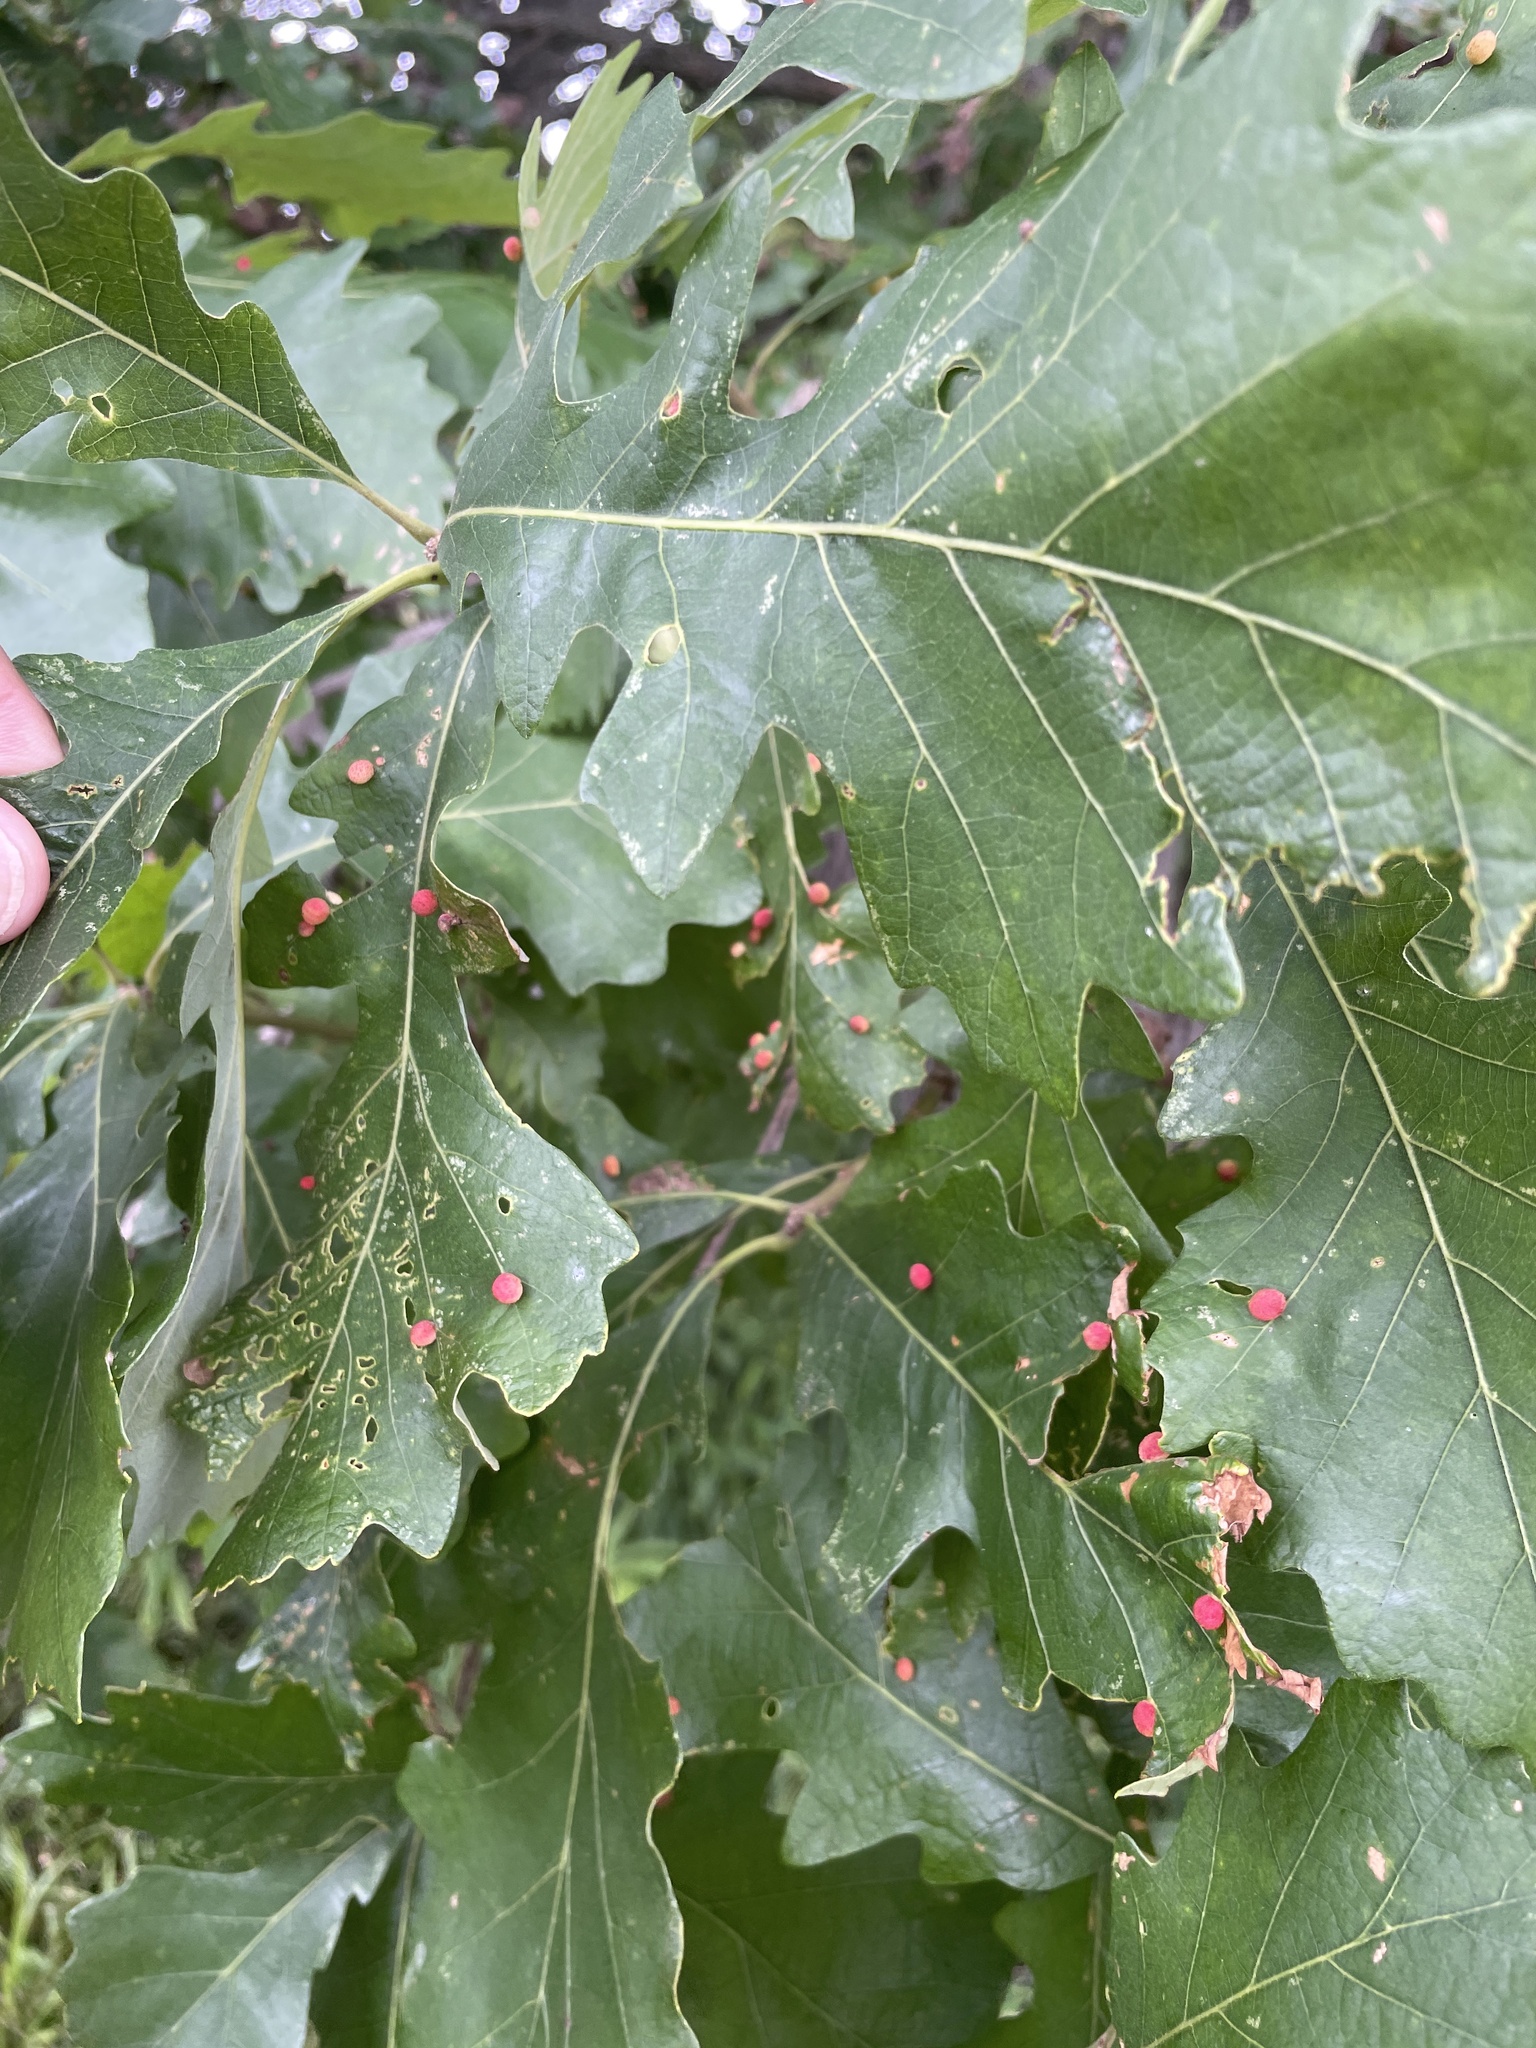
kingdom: Animalia
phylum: Arthropoda
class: Insecta
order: Hymenoptera
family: Cynipidae
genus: Acraspis
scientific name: Acraspis quercushirta
